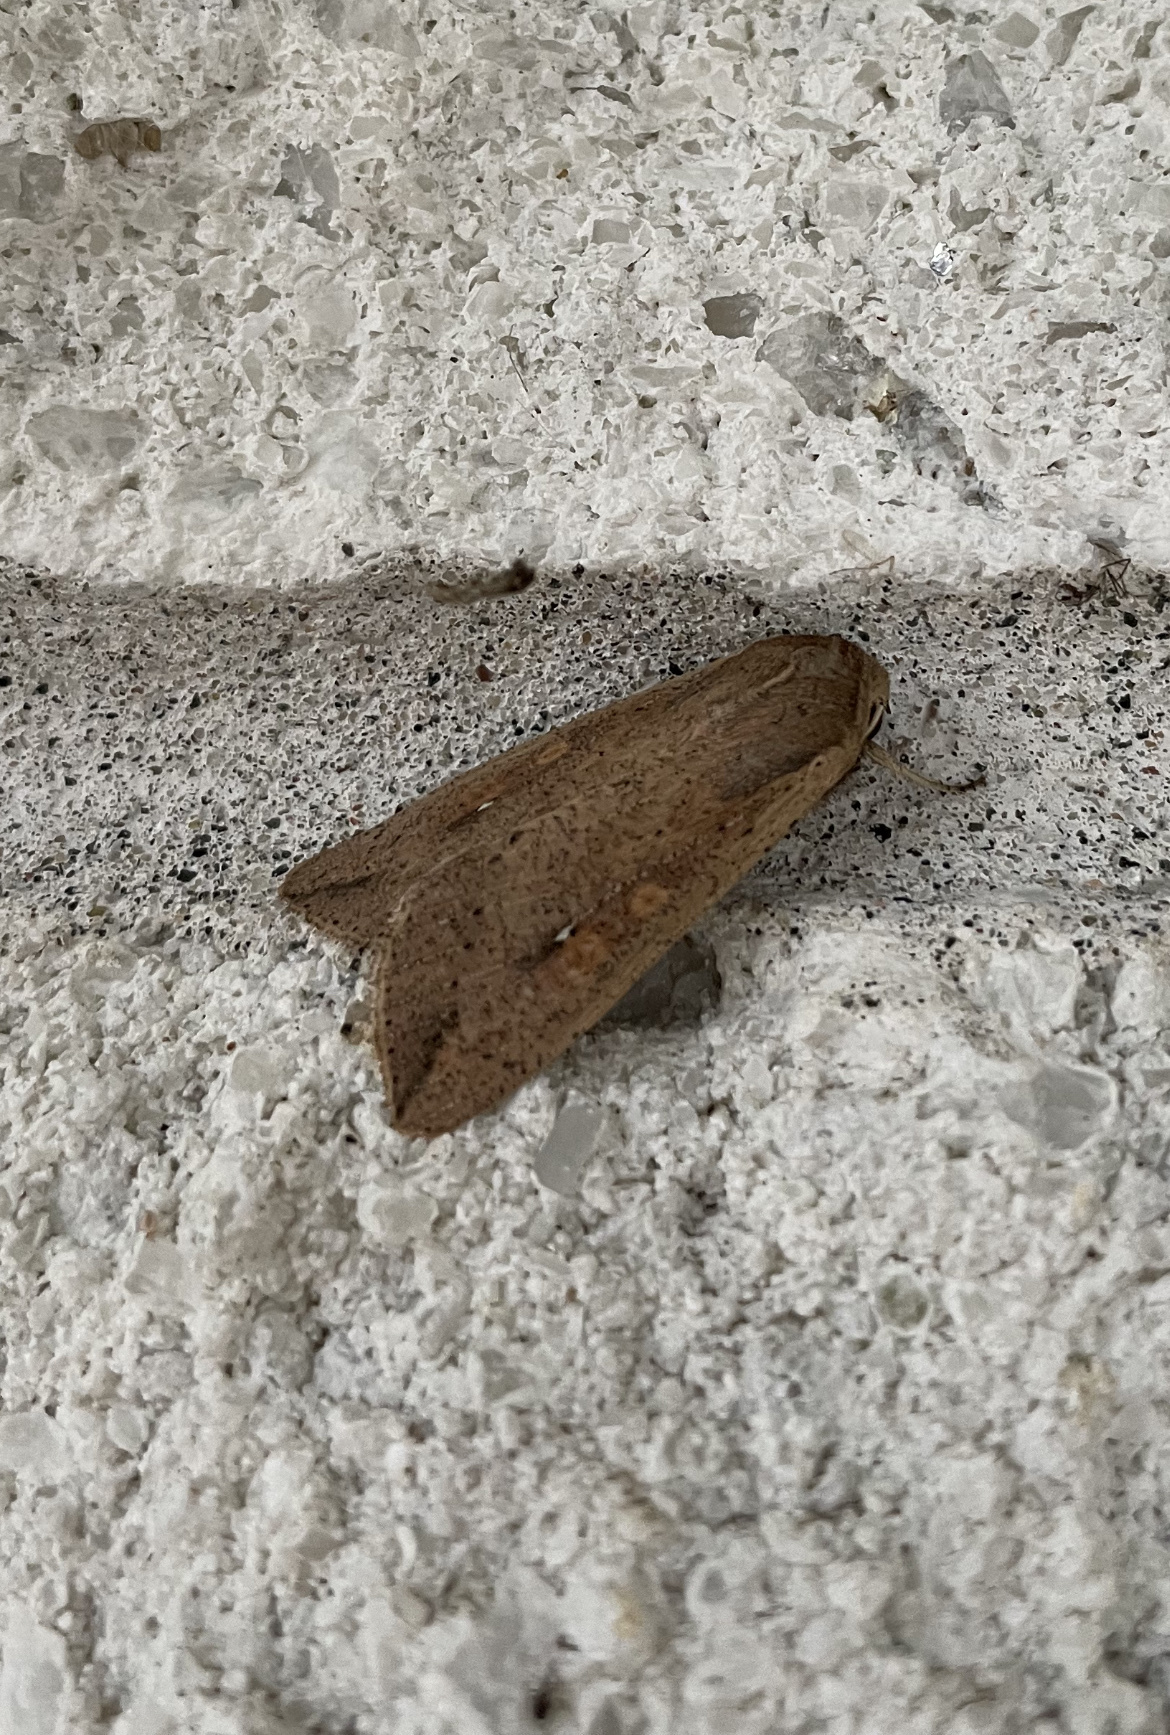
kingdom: Animalia
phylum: Arthropoda
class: Insecta
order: Lepidoptera
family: Noctuidae
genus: Mythimna
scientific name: Mythimna unipuncta
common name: White-speck
